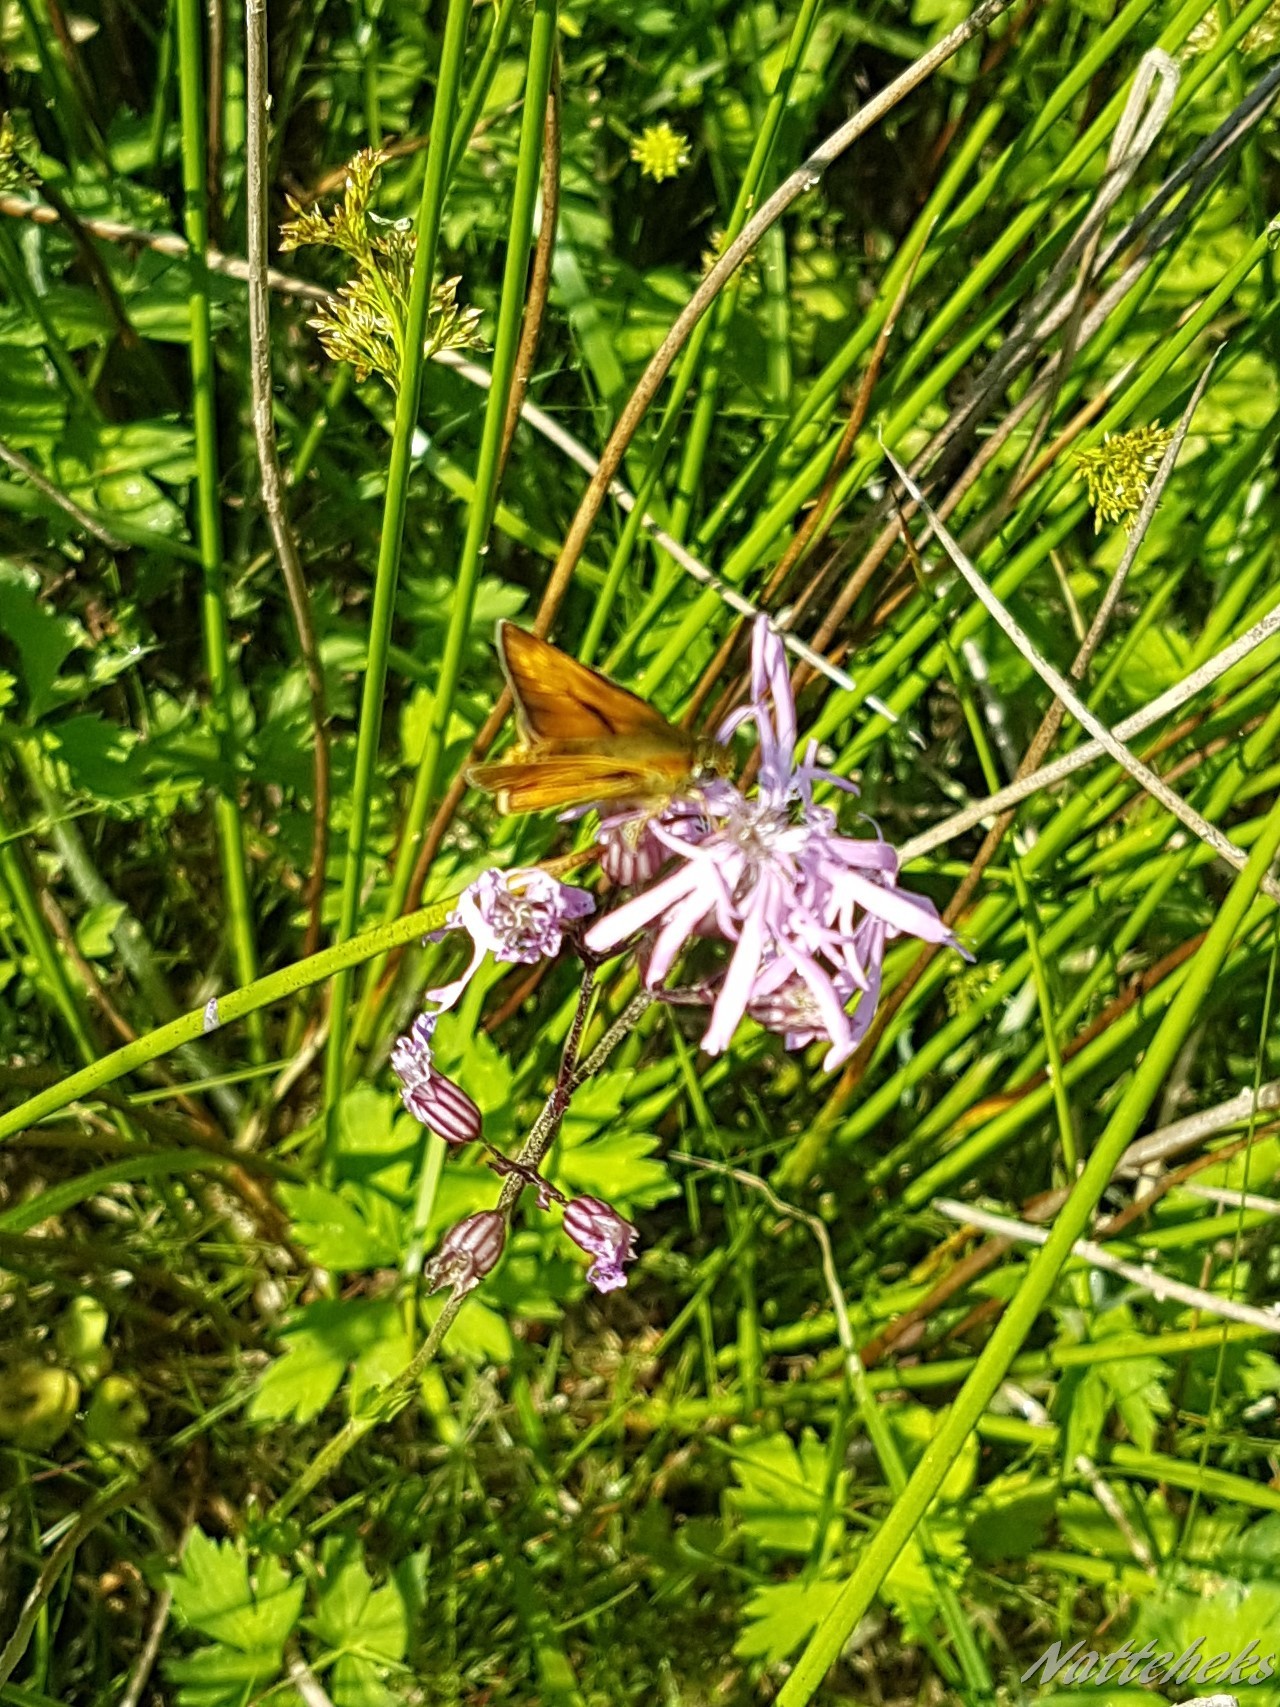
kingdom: Animalia
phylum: Arthropoda
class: Insecta
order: Lepidoptera
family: Hesperiidae
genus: Ochlodes
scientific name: Ochlodes venata
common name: Large skipper
